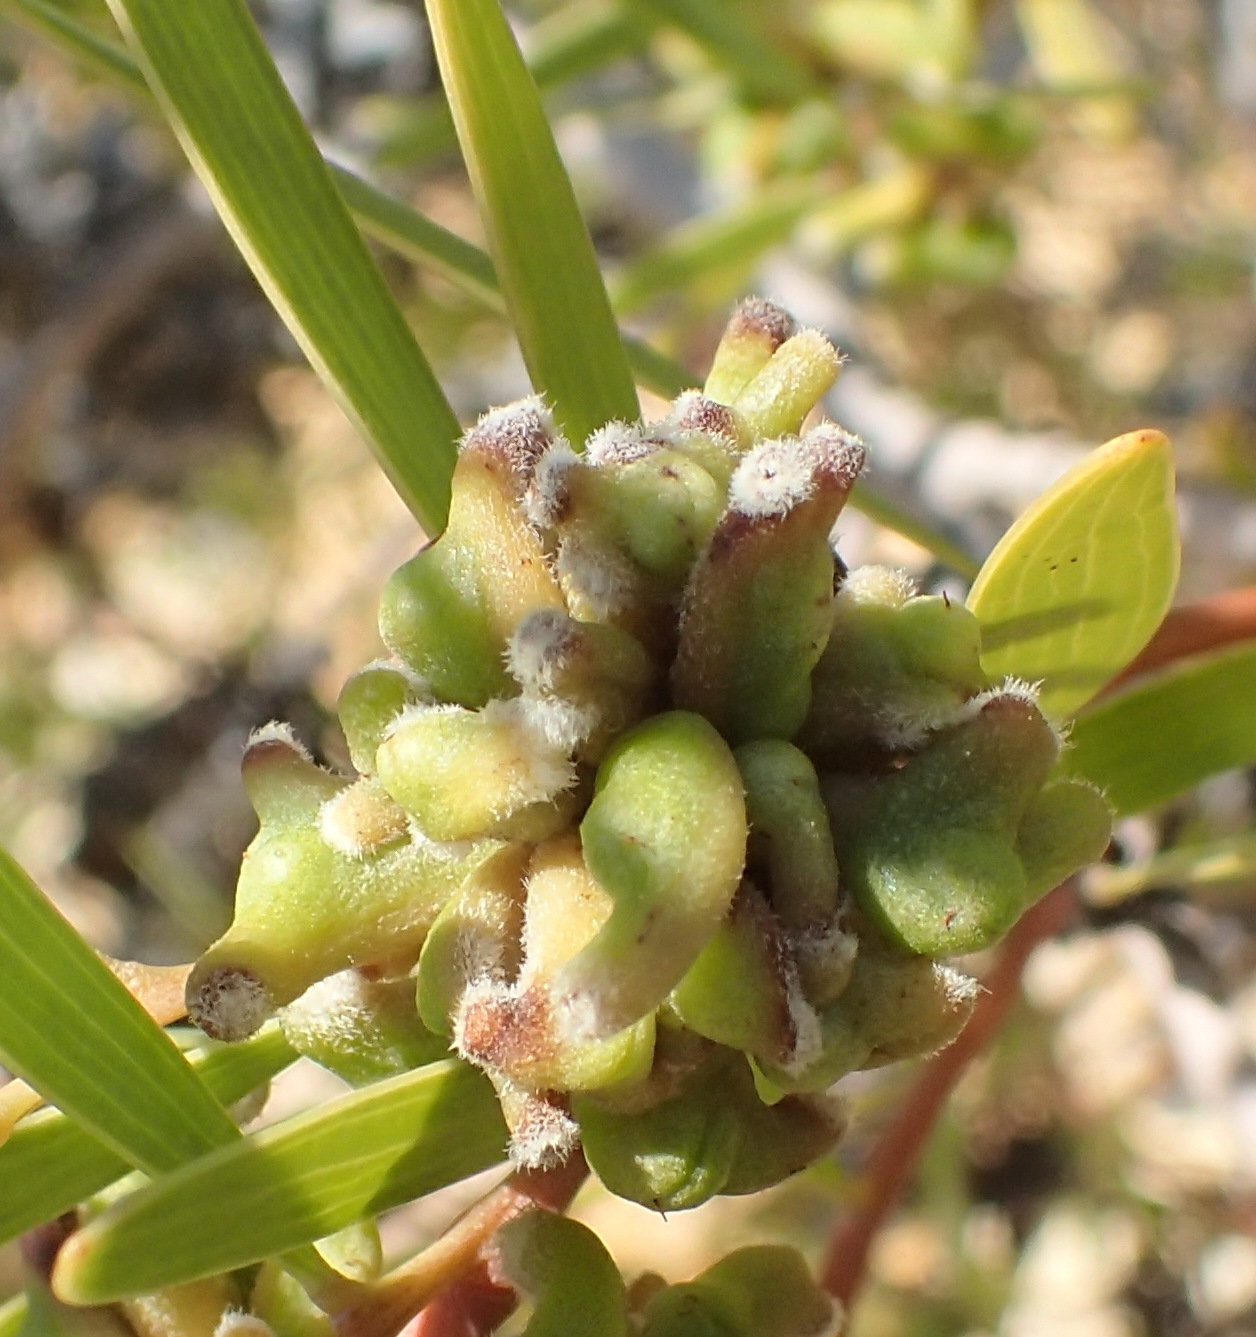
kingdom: Animalia
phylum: Arthropoda
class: Insecta
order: Diptera
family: Cecidomyiidae
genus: Dasineura
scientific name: Dasineura dielsi
